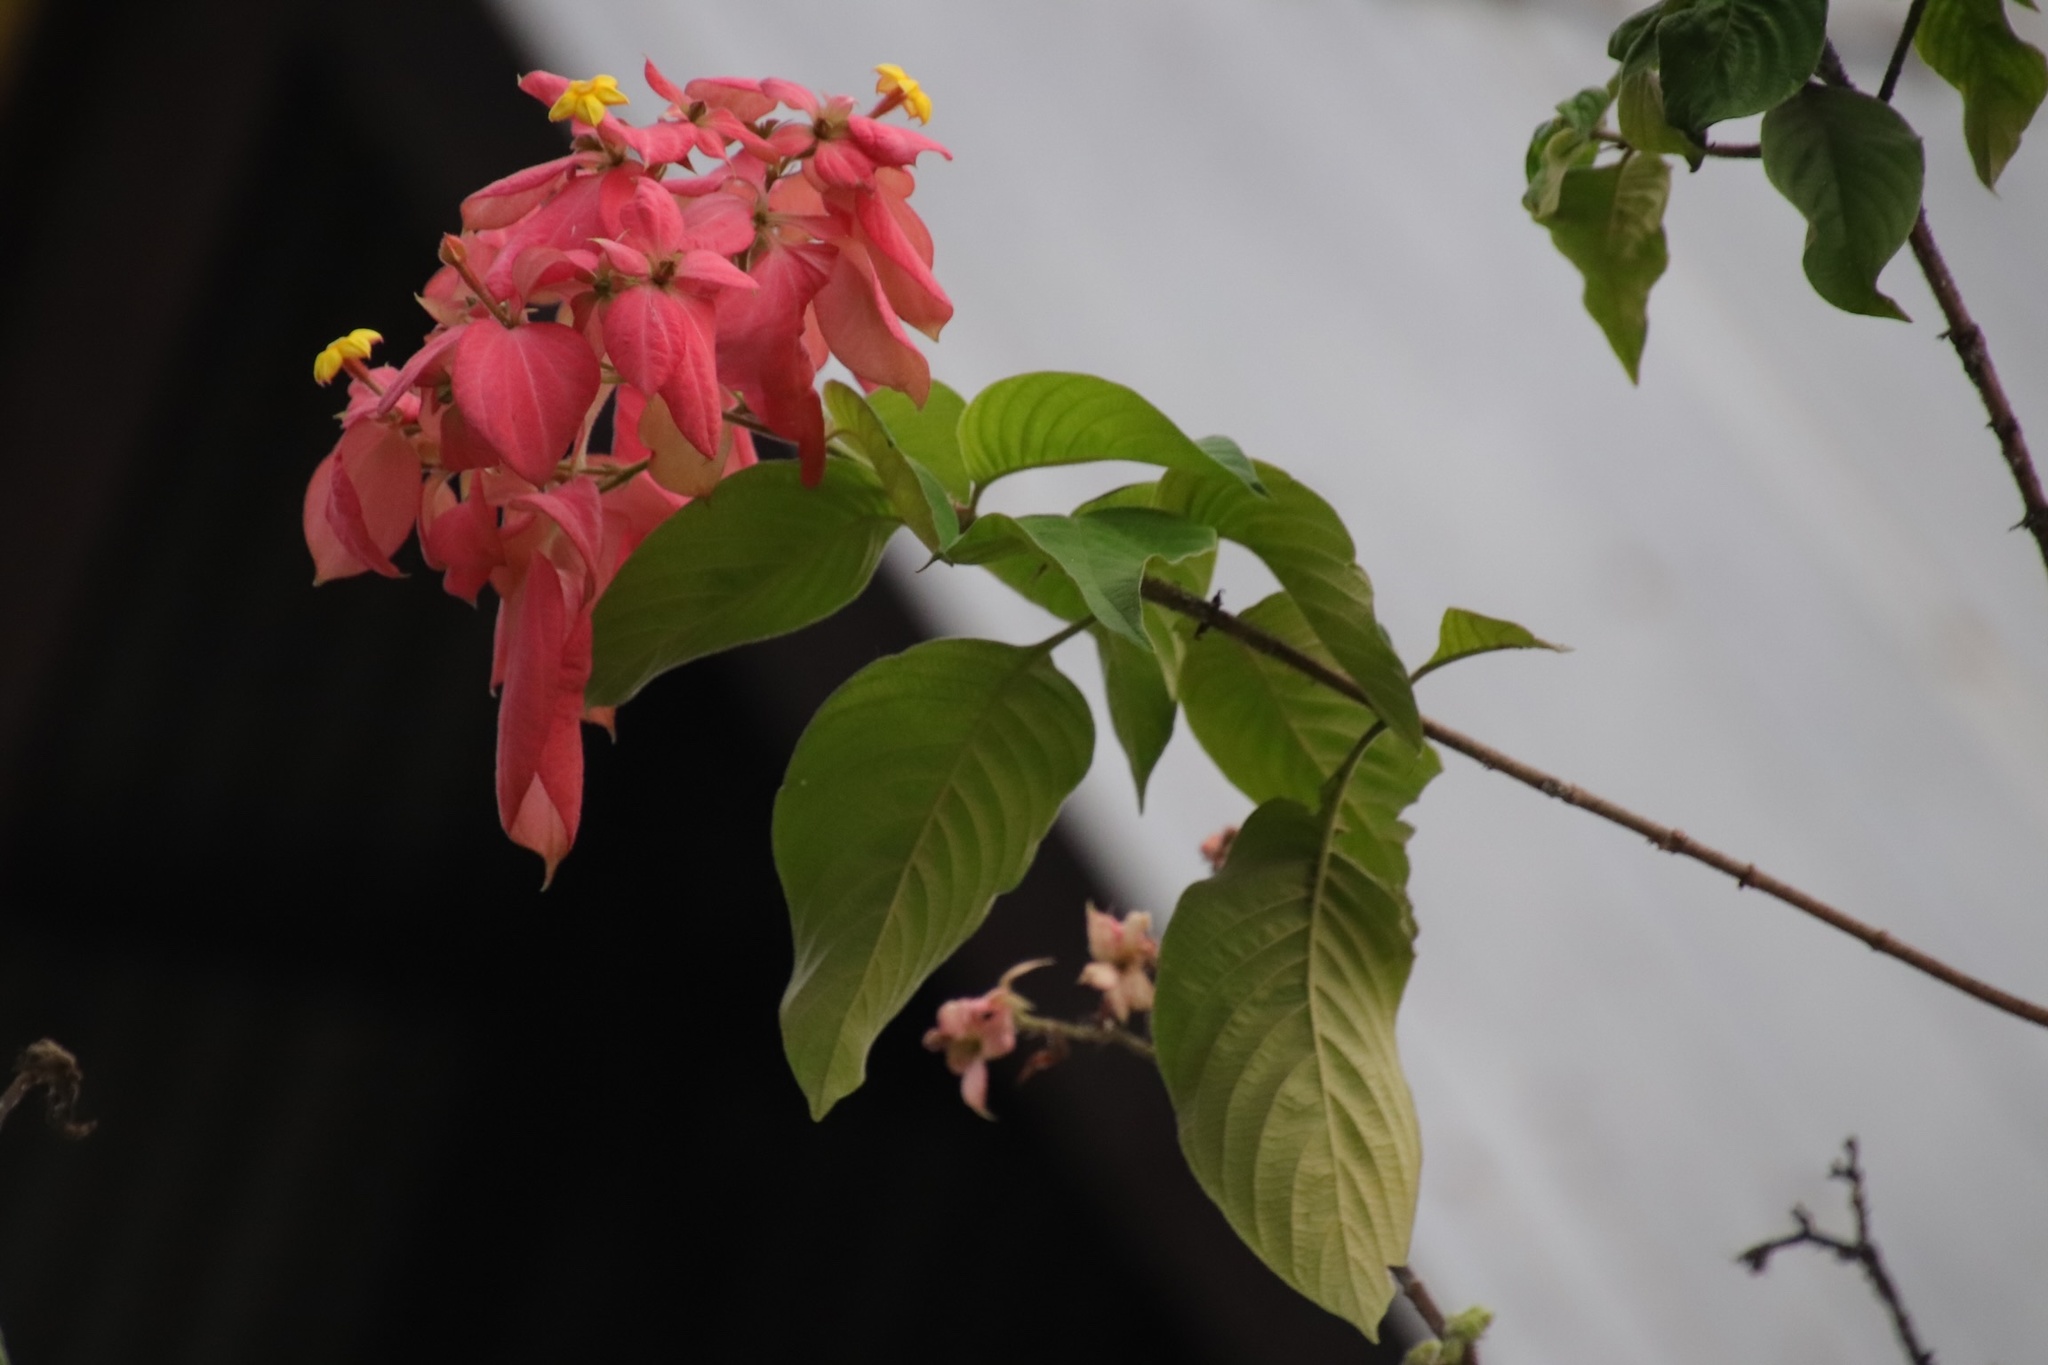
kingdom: Plantae
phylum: Tracheophyta
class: Magnoliopsida
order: Gentianales
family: Rubiaceae
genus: Mussaenda
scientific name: Mussaenda erythrophylla
